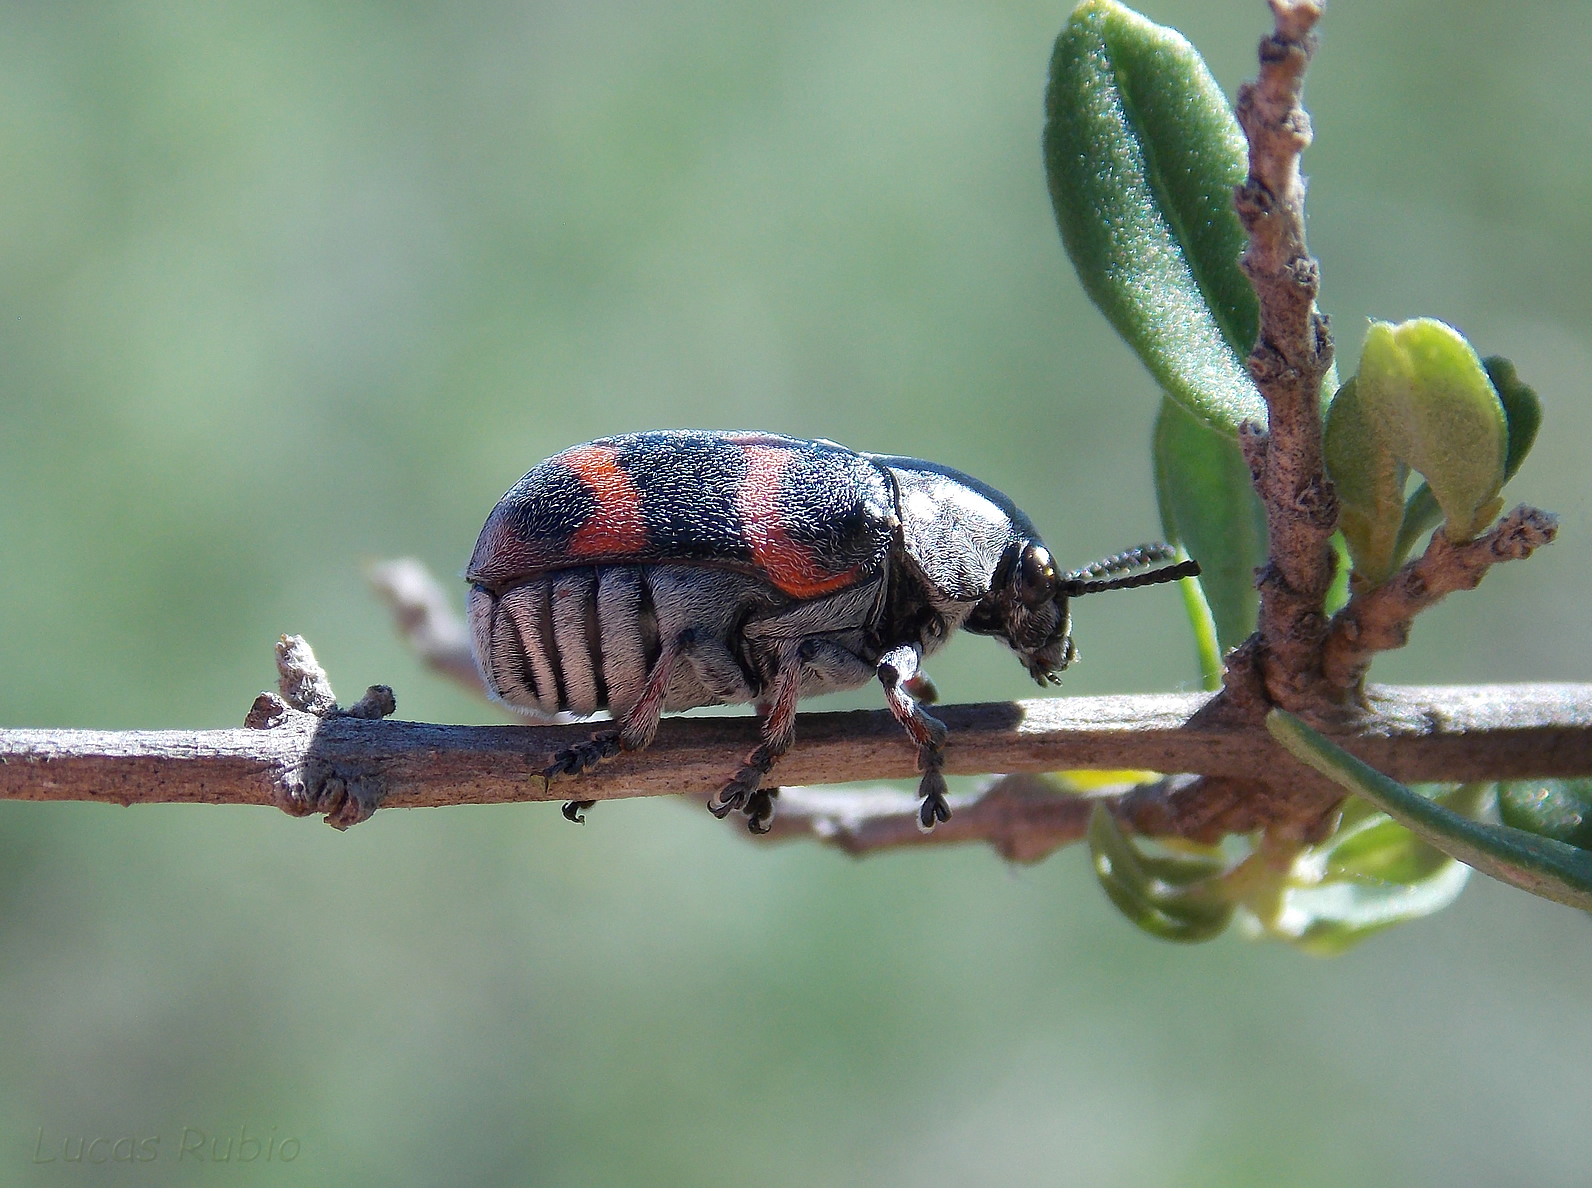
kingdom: Animalia
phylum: Arthropoda
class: Insecta
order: Coleoptera
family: Chrysomelidae
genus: Megalostomis
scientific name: Megalostomis gazella
